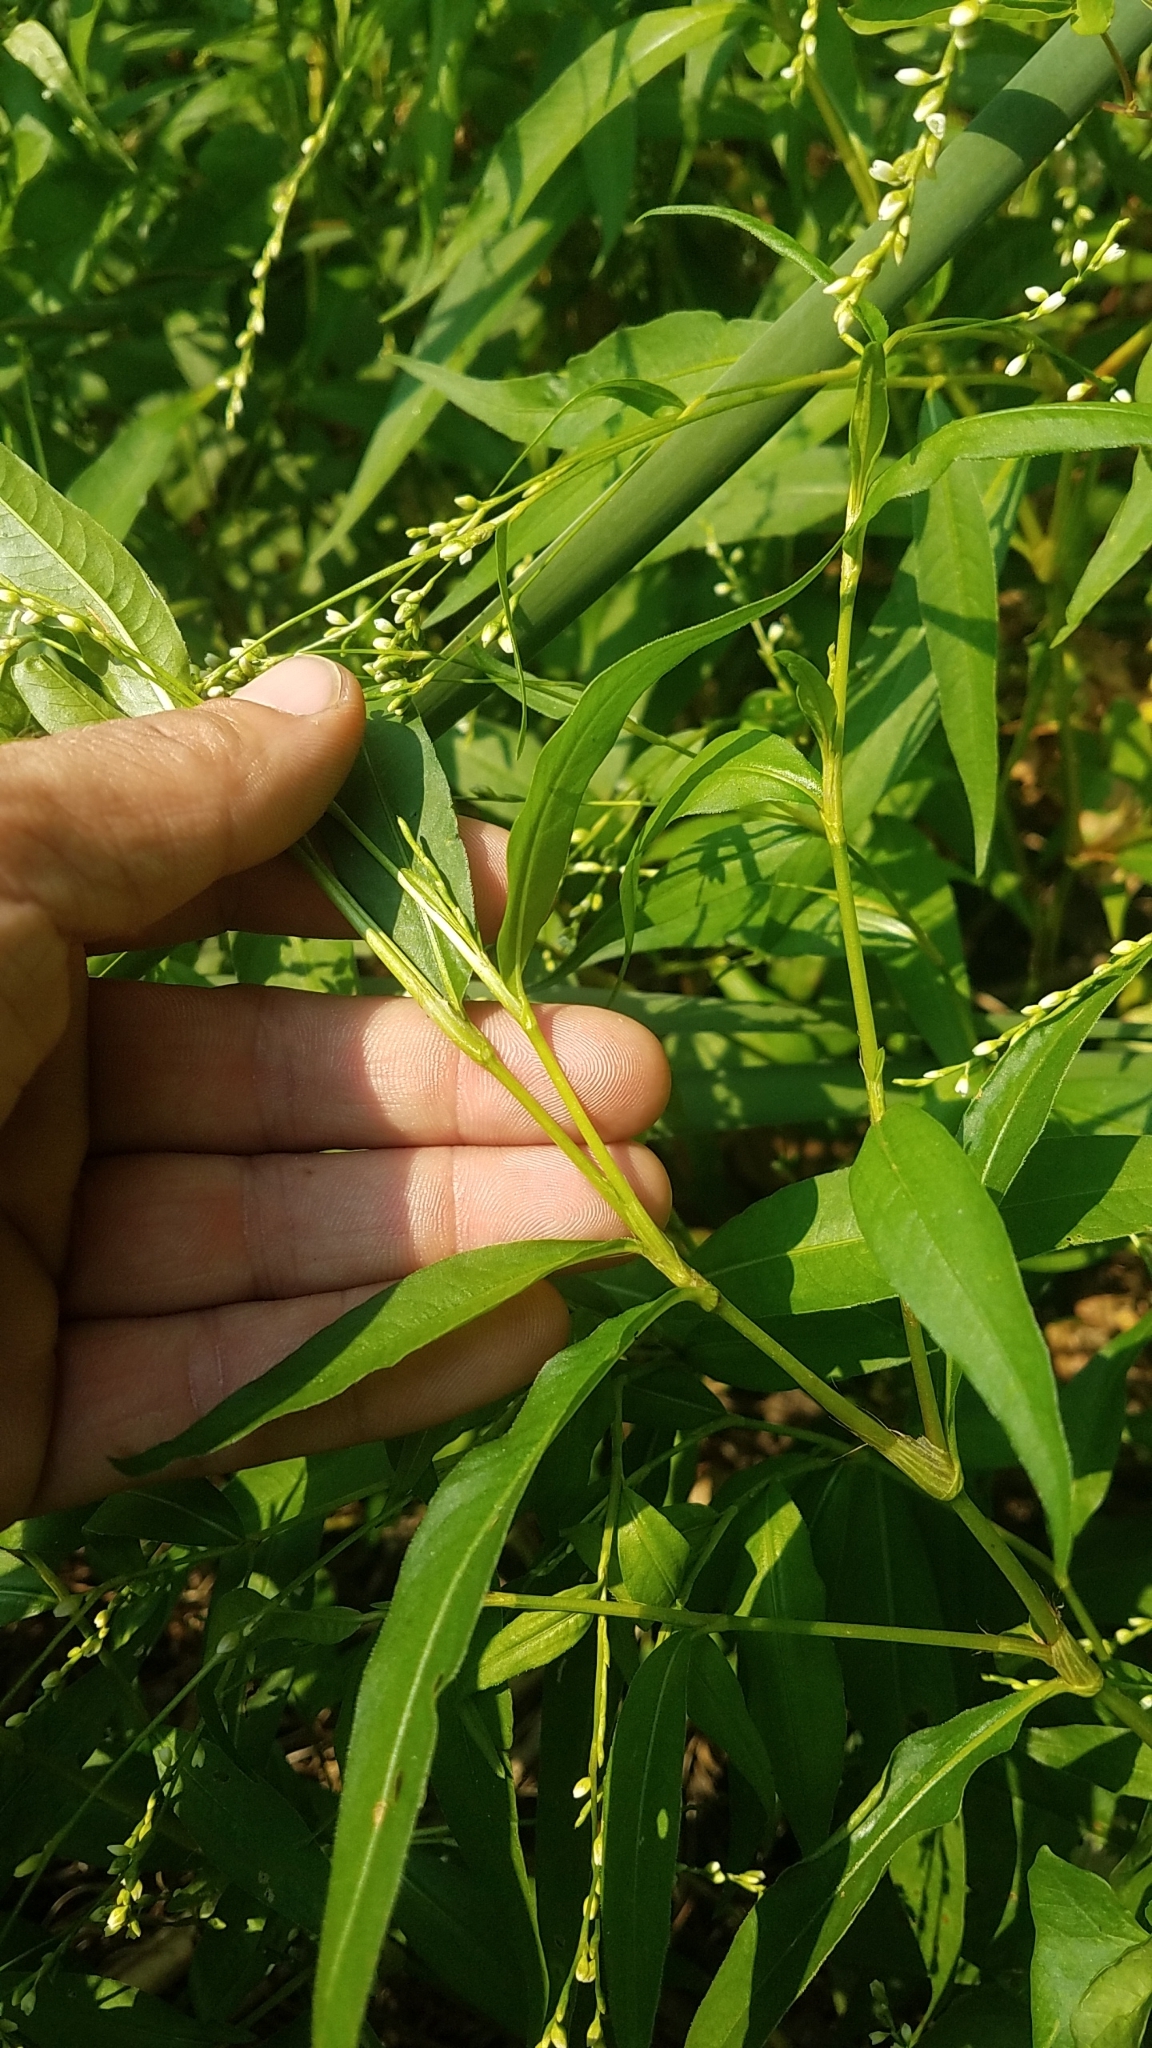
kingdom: Plantae
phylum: Tracheophyta
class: Magnoliopsida
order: Caryophyllales
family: Polygonaceae
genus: Persicaria
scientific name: Persicaria punctata
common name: Dotted smartweed
